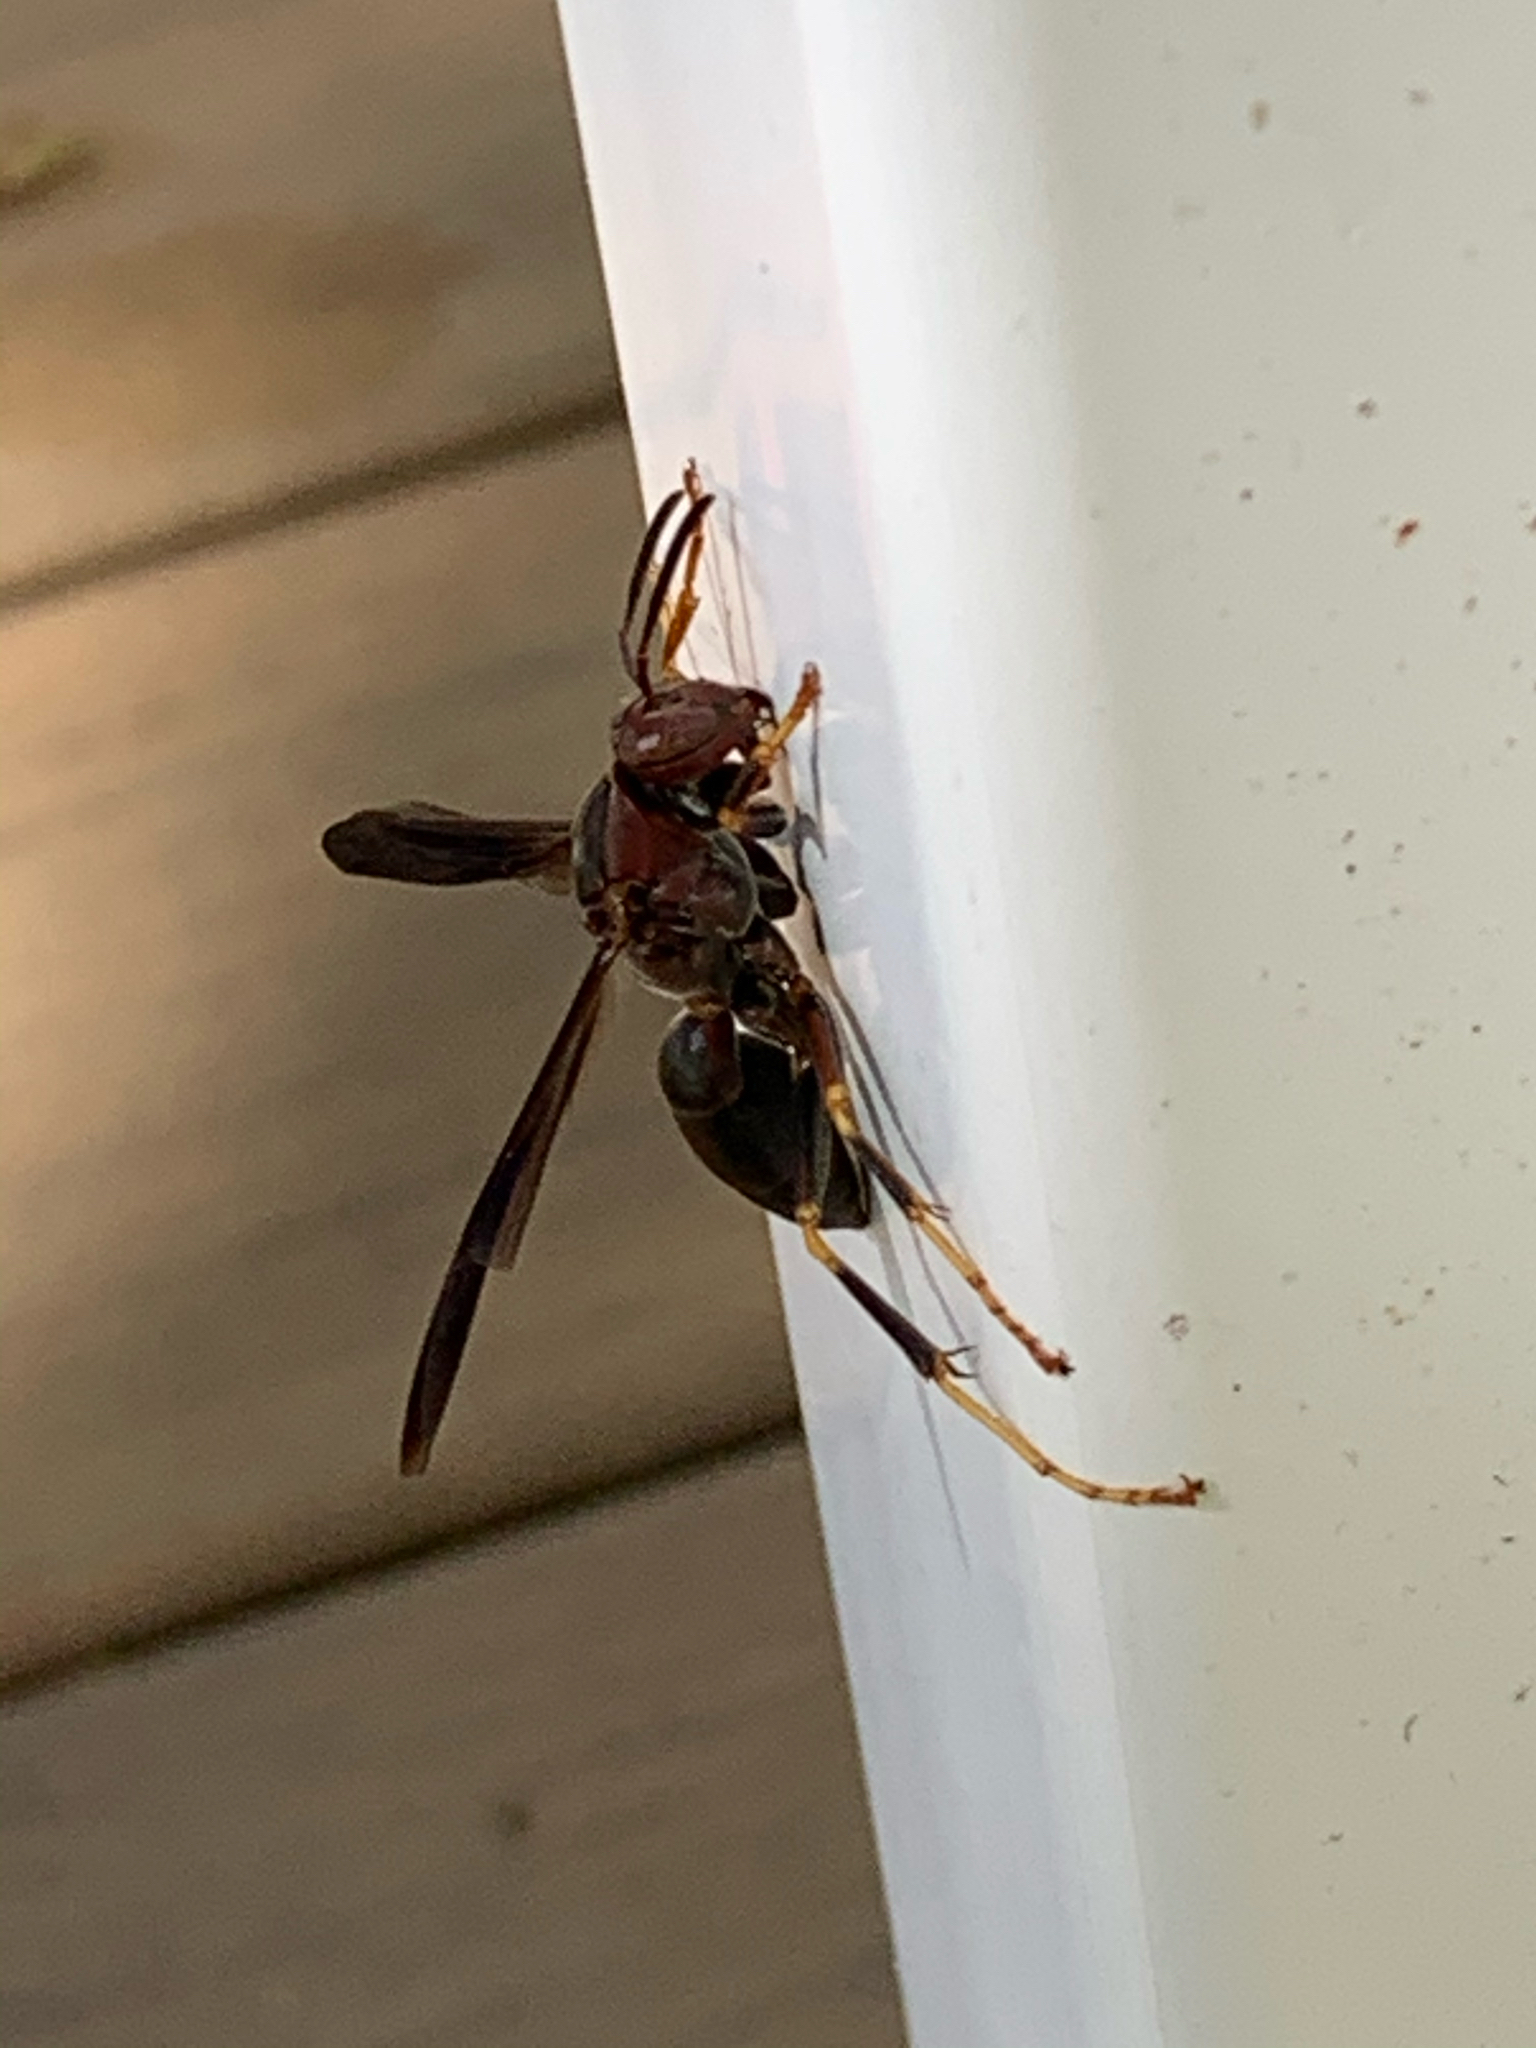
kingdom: Animalia
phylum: Arthropoda
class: Insecta
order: Hymenoptera
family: Eumenidae
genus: Polistes
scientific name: Polistes metricus
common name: Metric paper wasp
